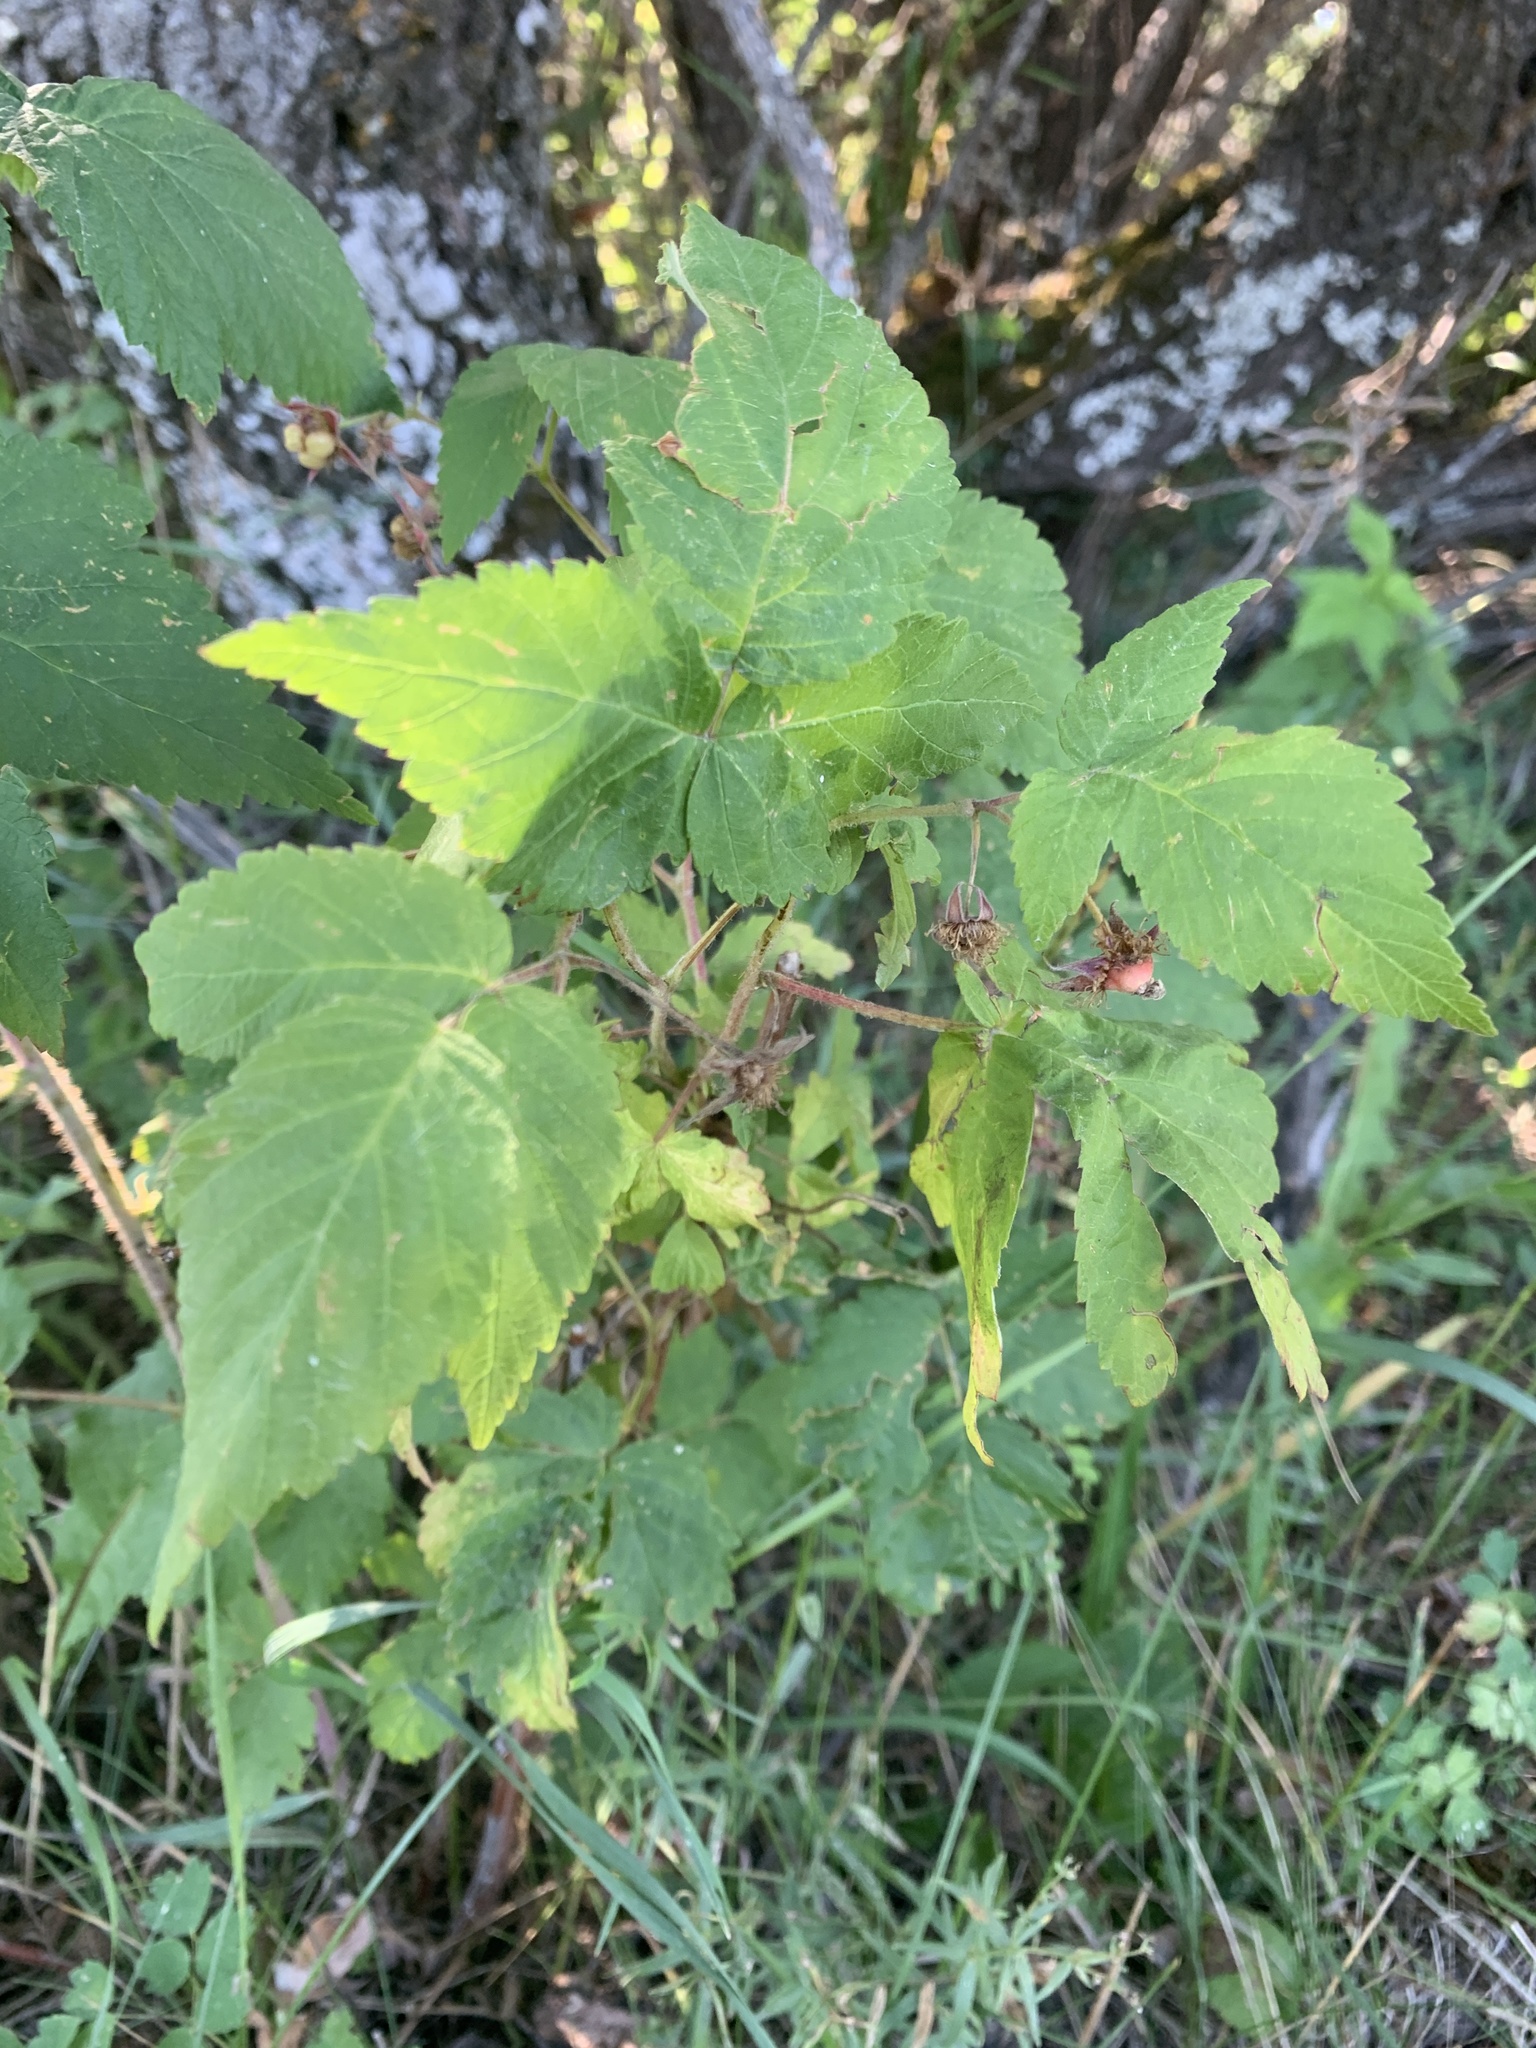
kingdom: Plantae
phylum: Tracheophyta
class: Magnoliopsida
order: Rosales
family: Rosaceae
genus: Rubus
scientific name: Rubus idaeus
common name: Raspberry
